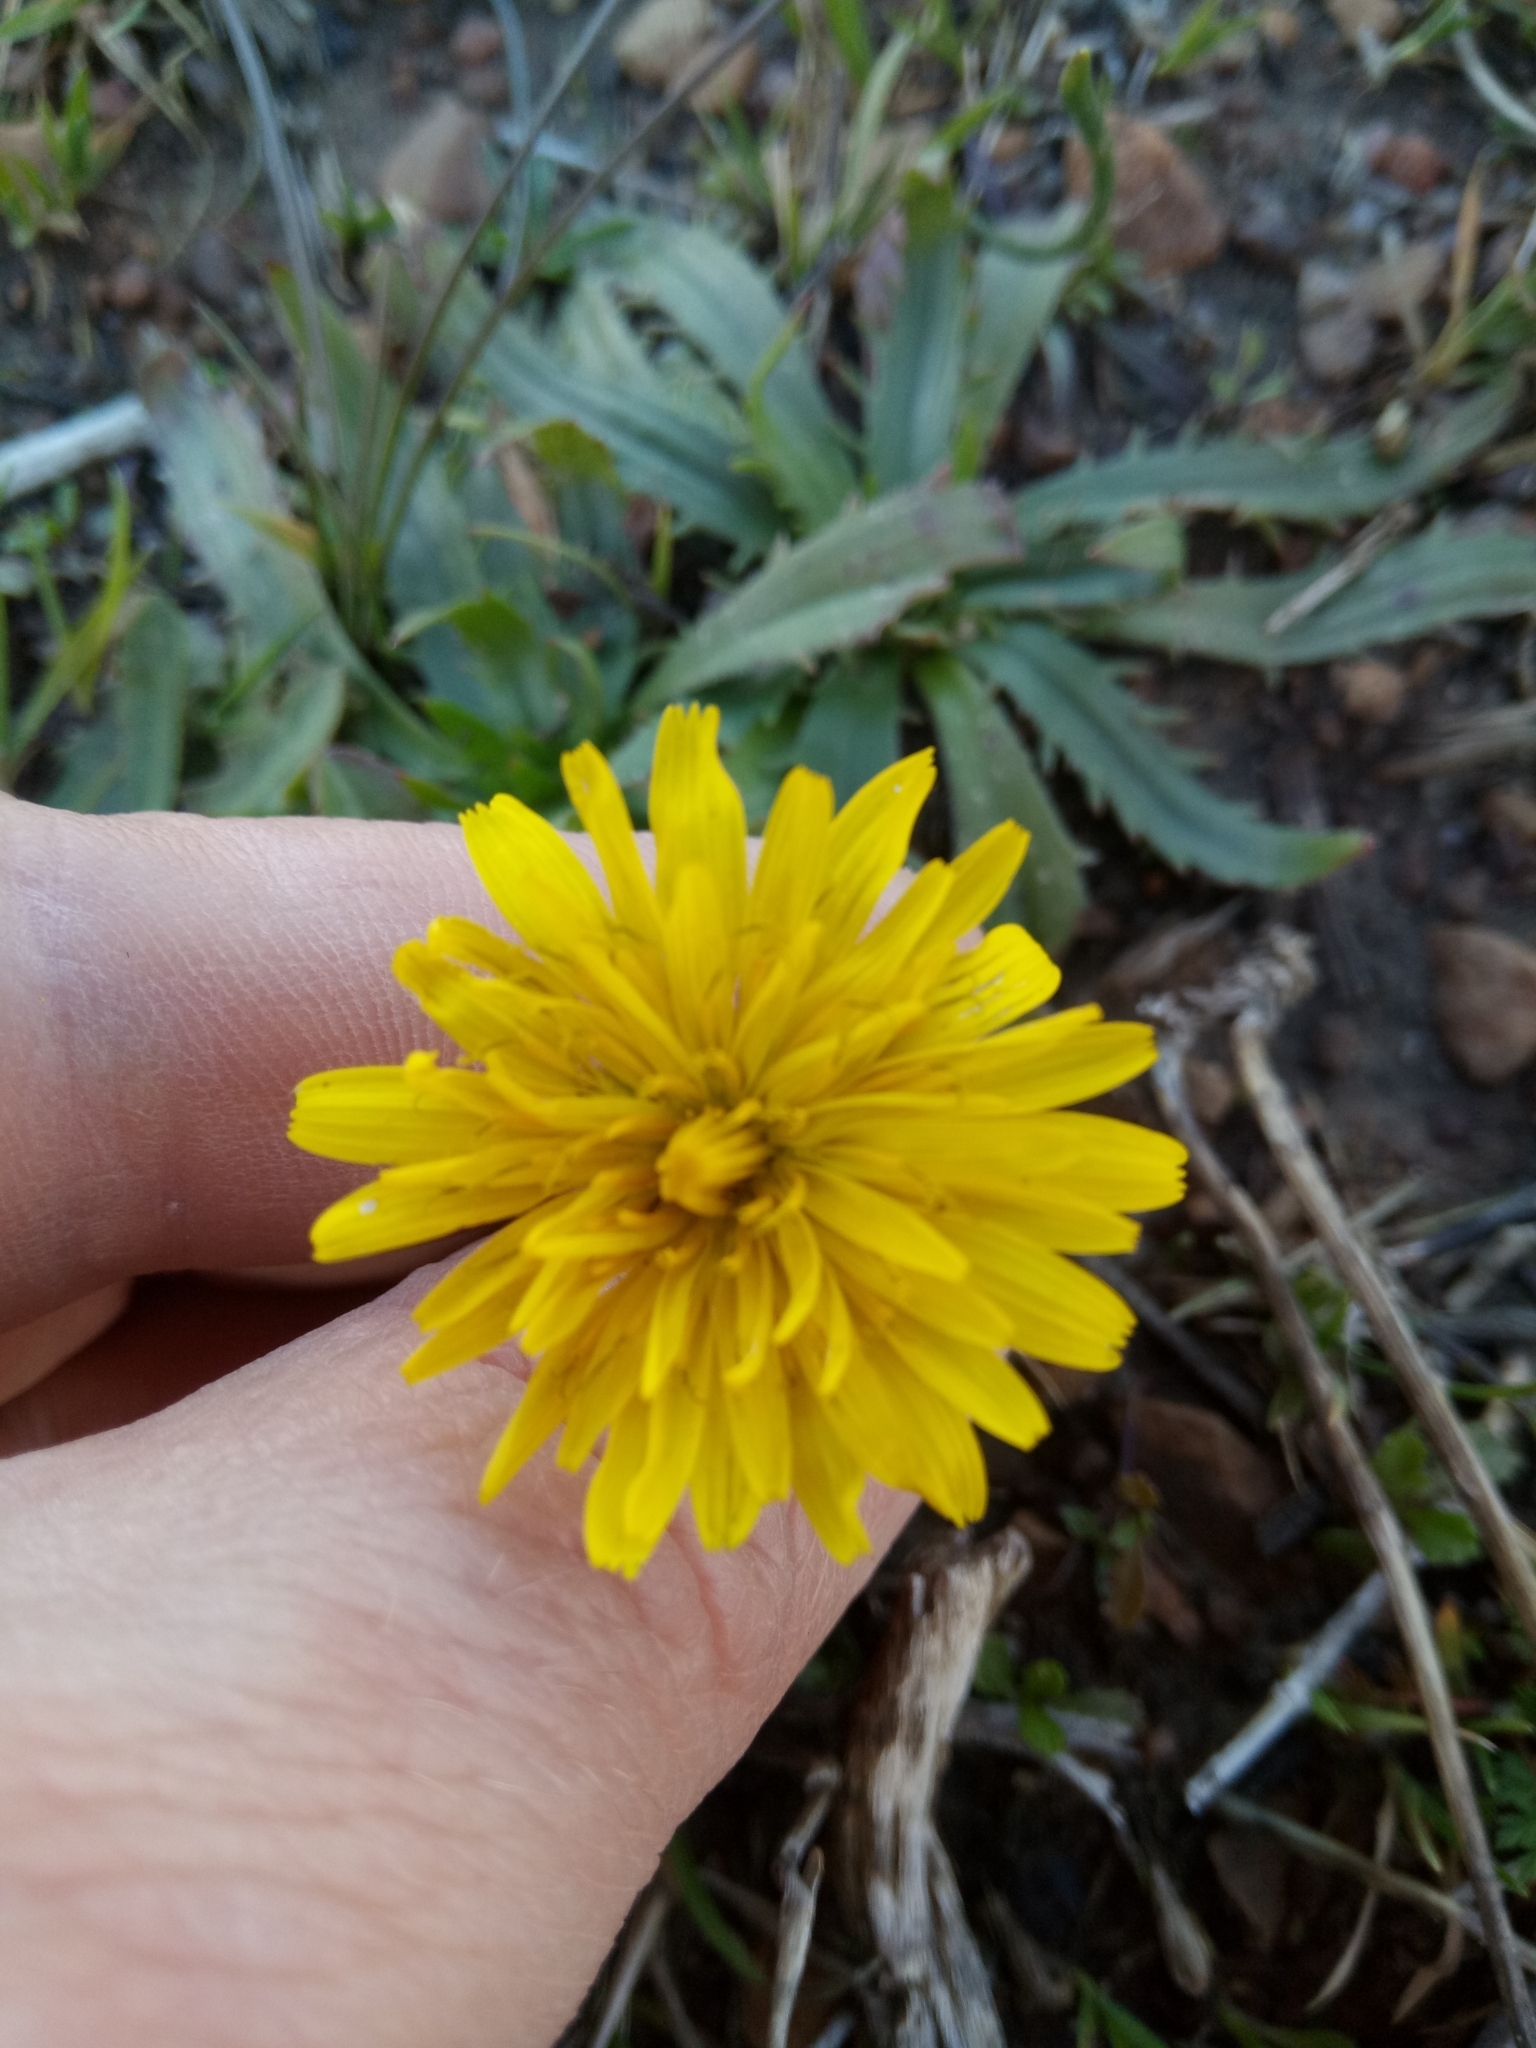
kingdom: Plantae
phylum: Tracheophyta
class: Magnoliopsida
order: Asterales
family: Asteraceae
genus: Leontodon
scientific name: Leontodon tuberosus
